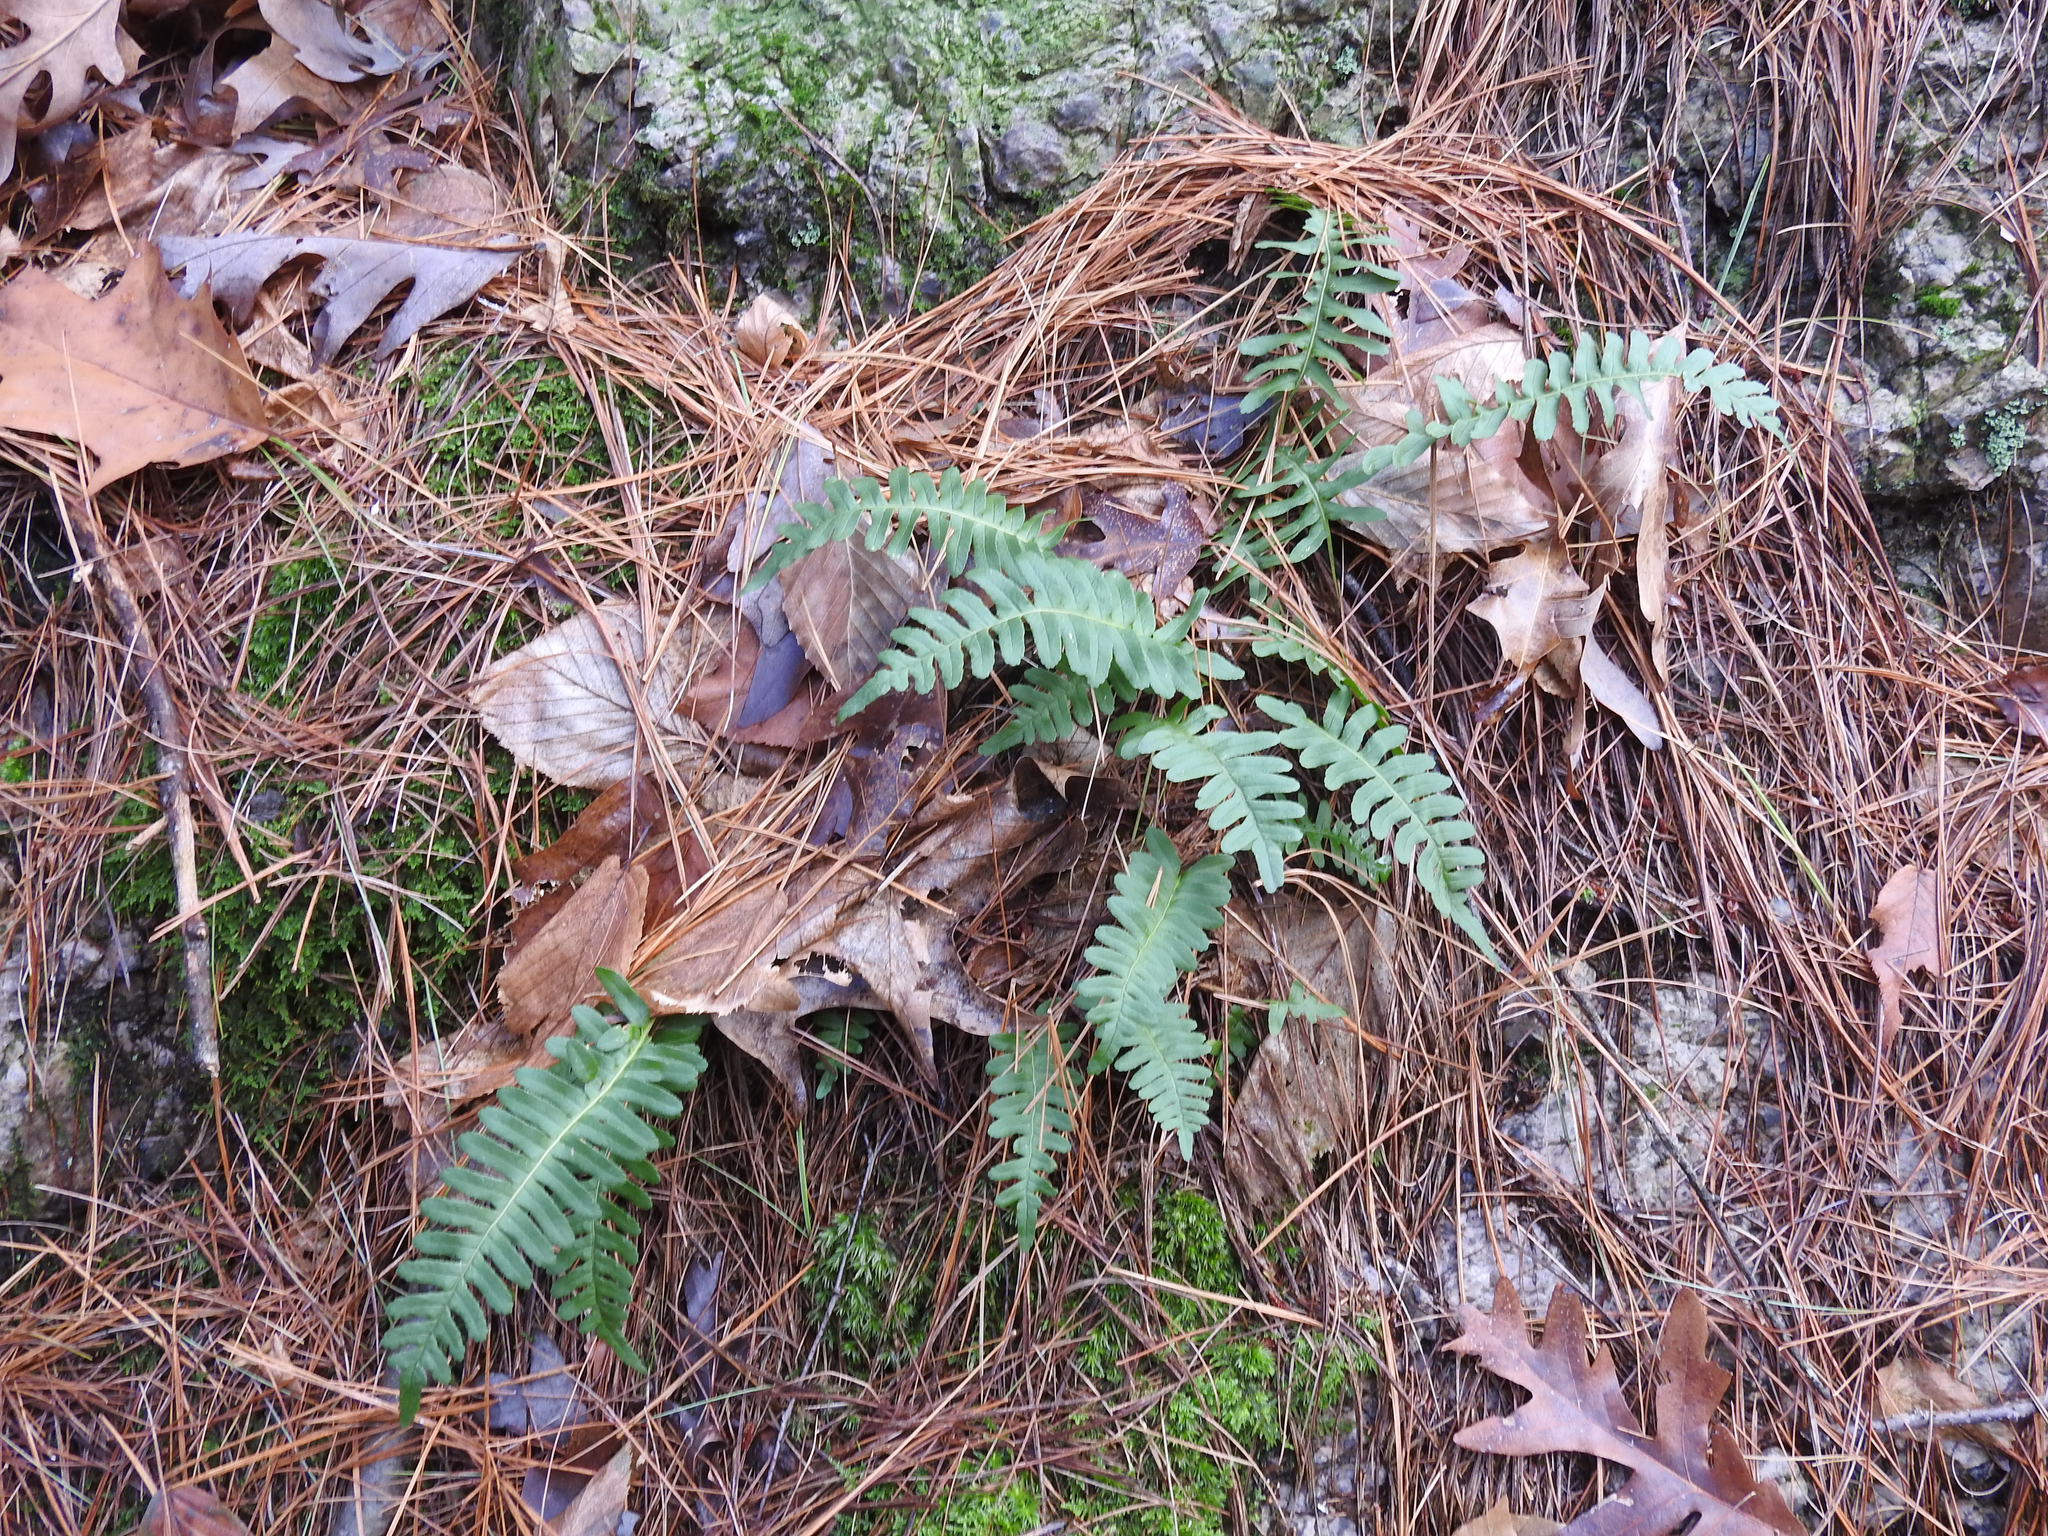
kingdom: Plantae
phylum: Tracheophyta
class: Polypodiopsida
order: Polypodiales
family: Polypodiaceae
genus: Polypodium
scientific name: Polypodium virginianum
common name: American wall fern
